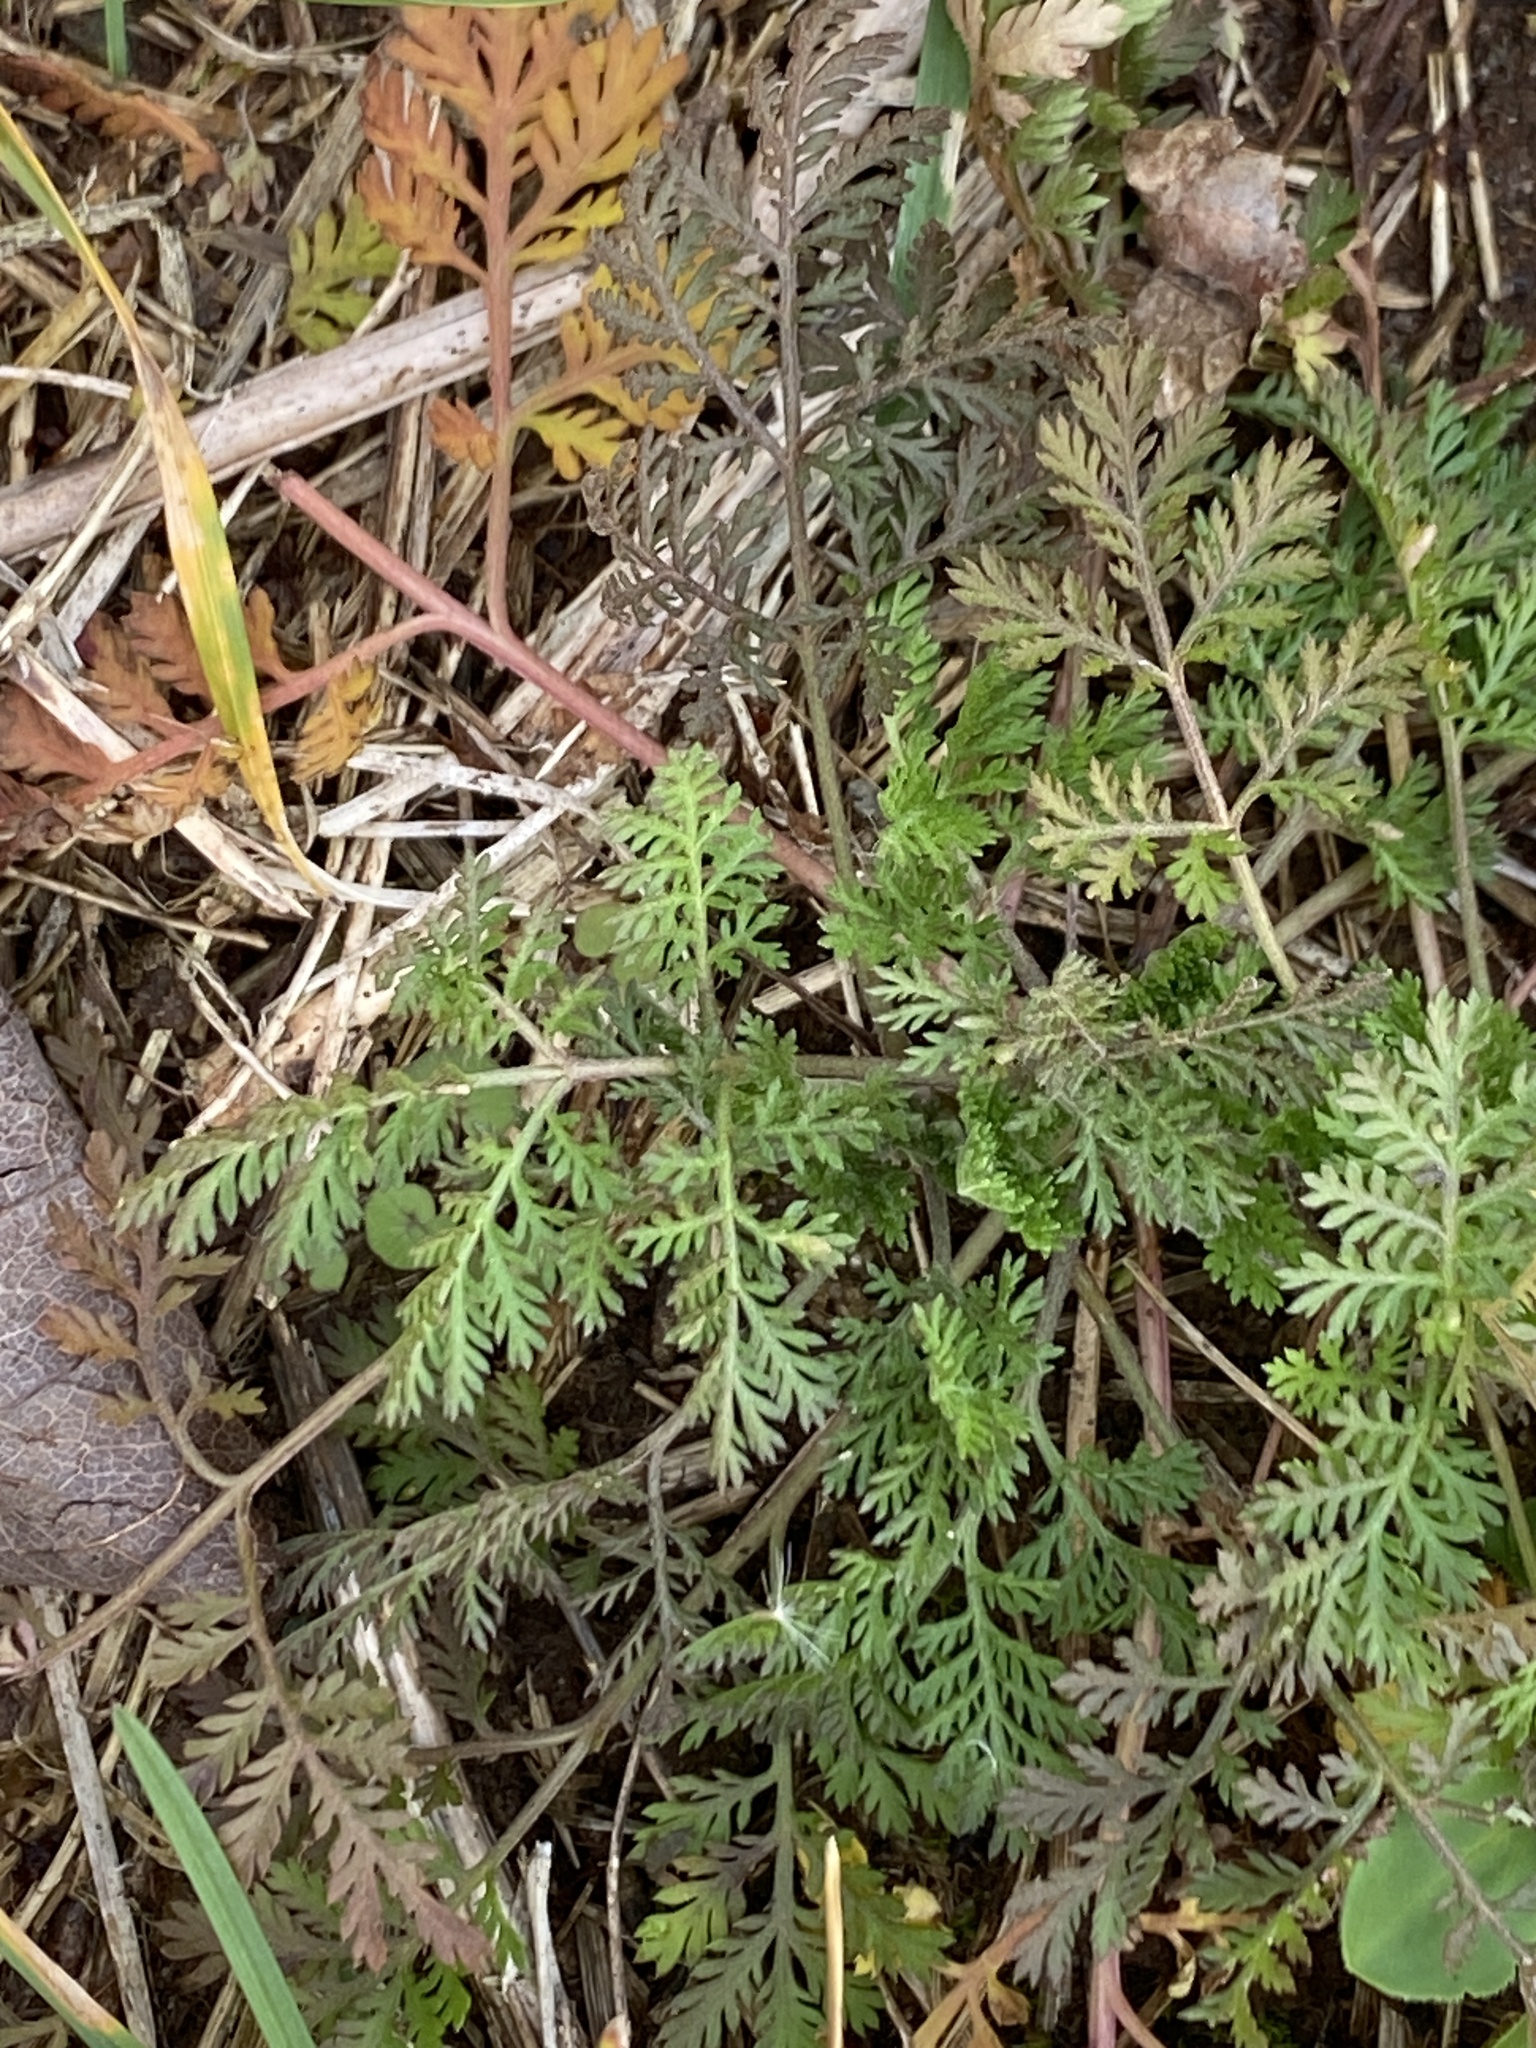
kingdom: Plantae
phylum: Tracheophyta
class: Magnoliopsida
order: Asterales
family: Asteraceae
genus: Artemisia
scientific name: Artemisia annua
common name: Sweet sagewort
